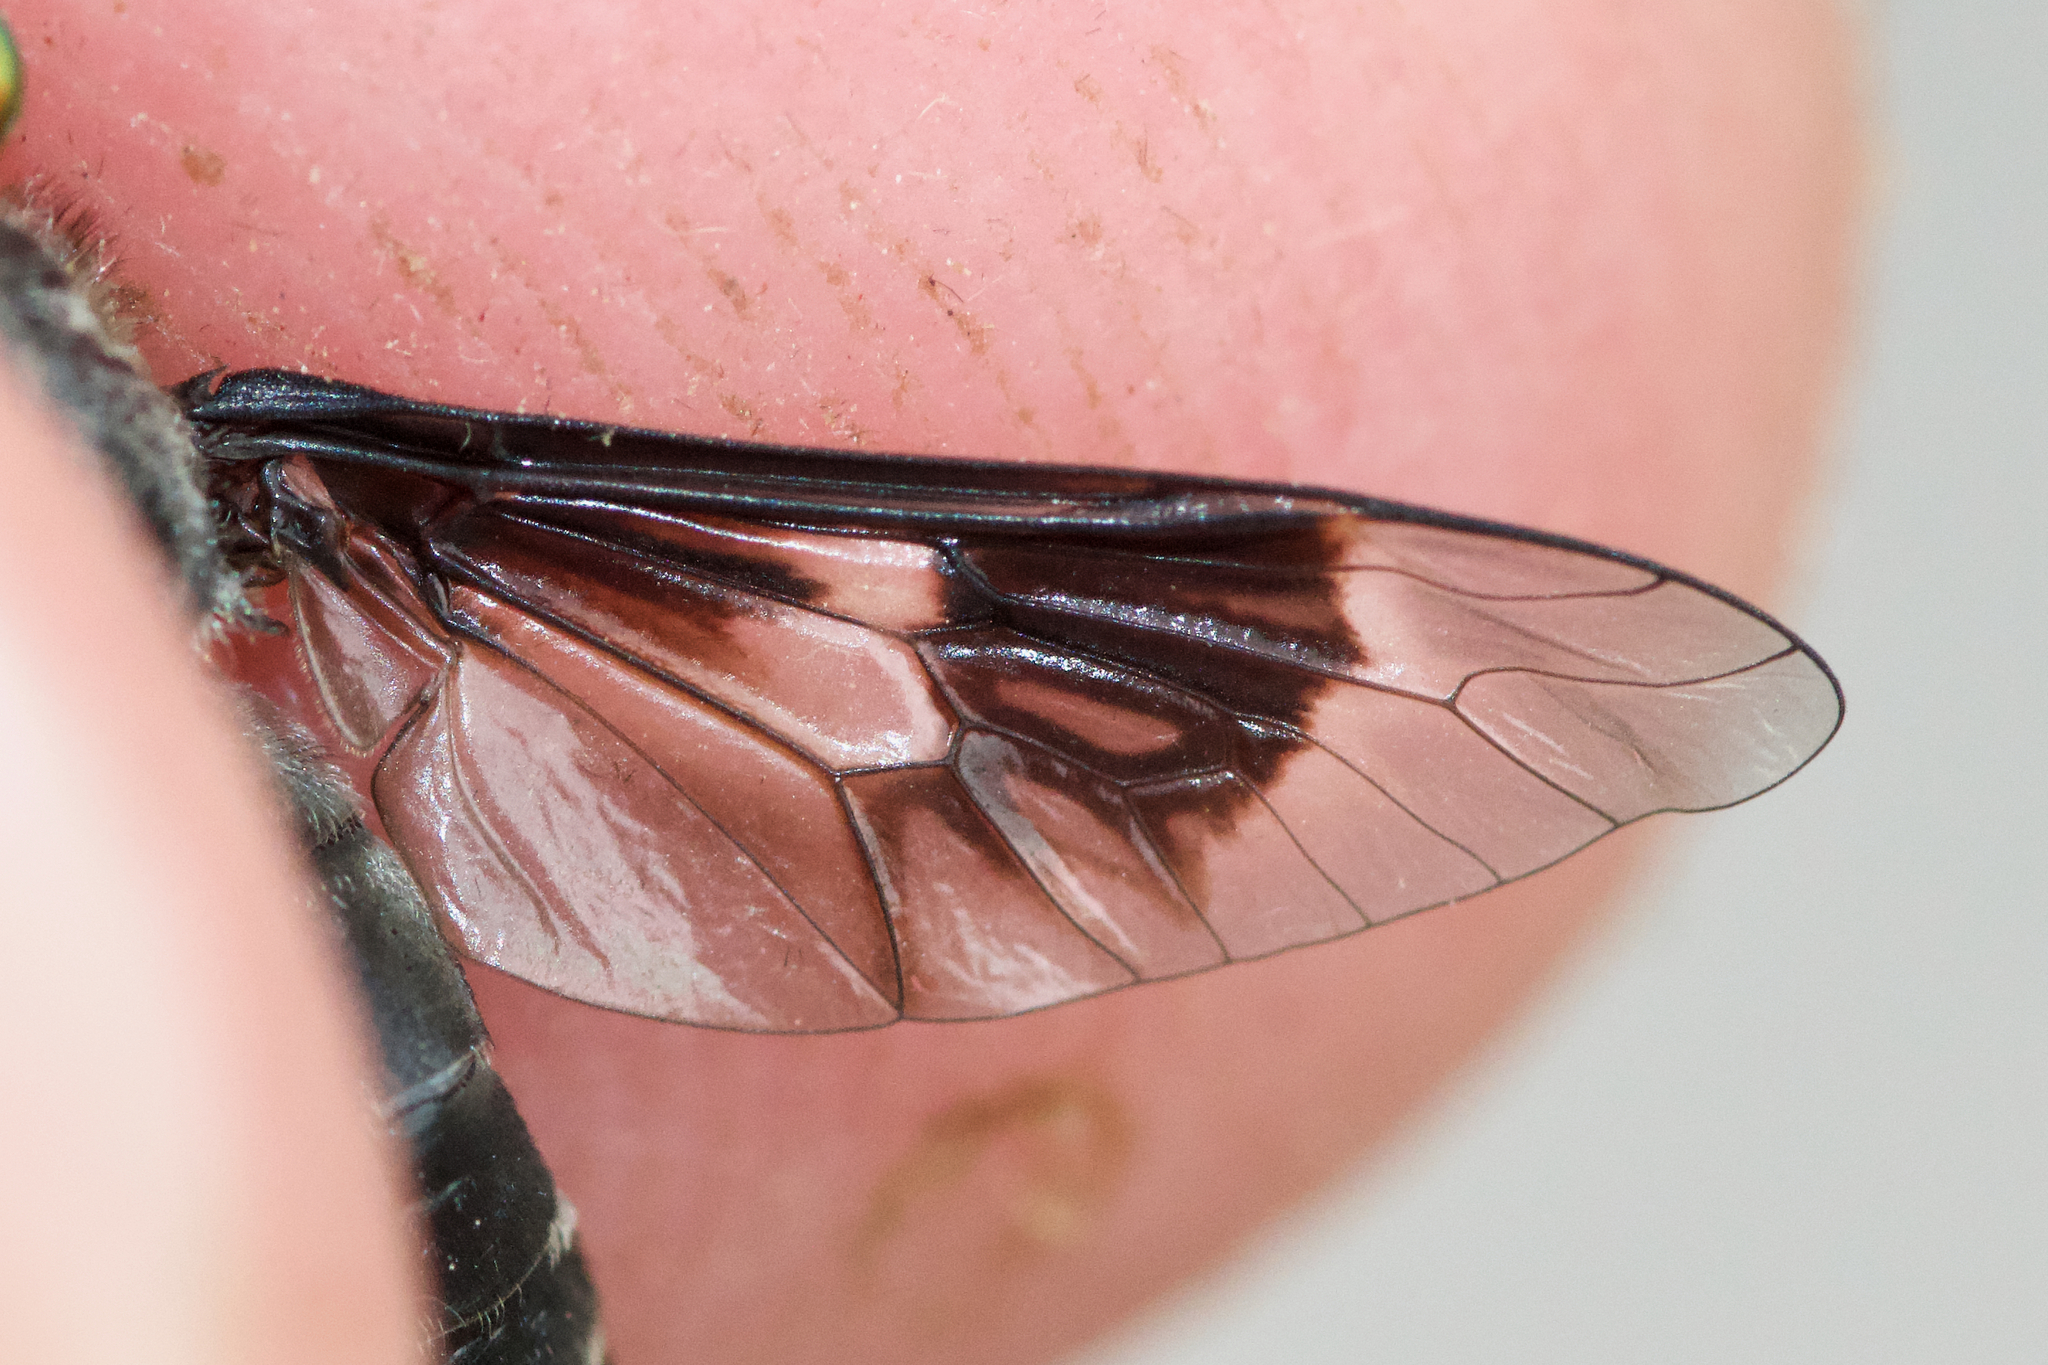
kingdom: Animalia
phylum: Arthropoda
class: Insecta
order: Diptera
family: Tabanidae
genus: Chrysops
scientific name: Chrysops mitis
